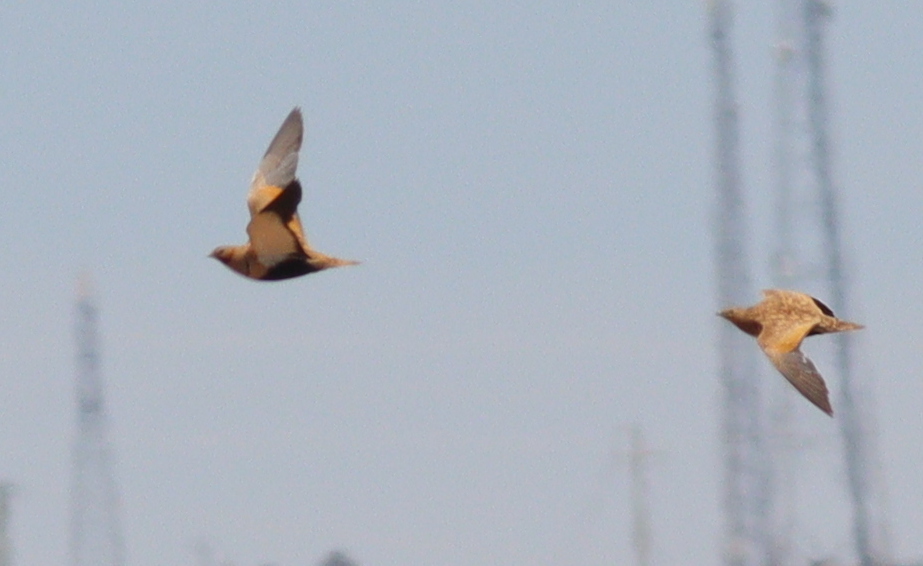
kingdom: Animalia
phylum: Chordata
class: Aves
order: Pteroclidiformes
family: Pteroclididae
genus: Pterocles
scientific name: Pterocles orientalis
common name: Black-bellied sandgrouse
